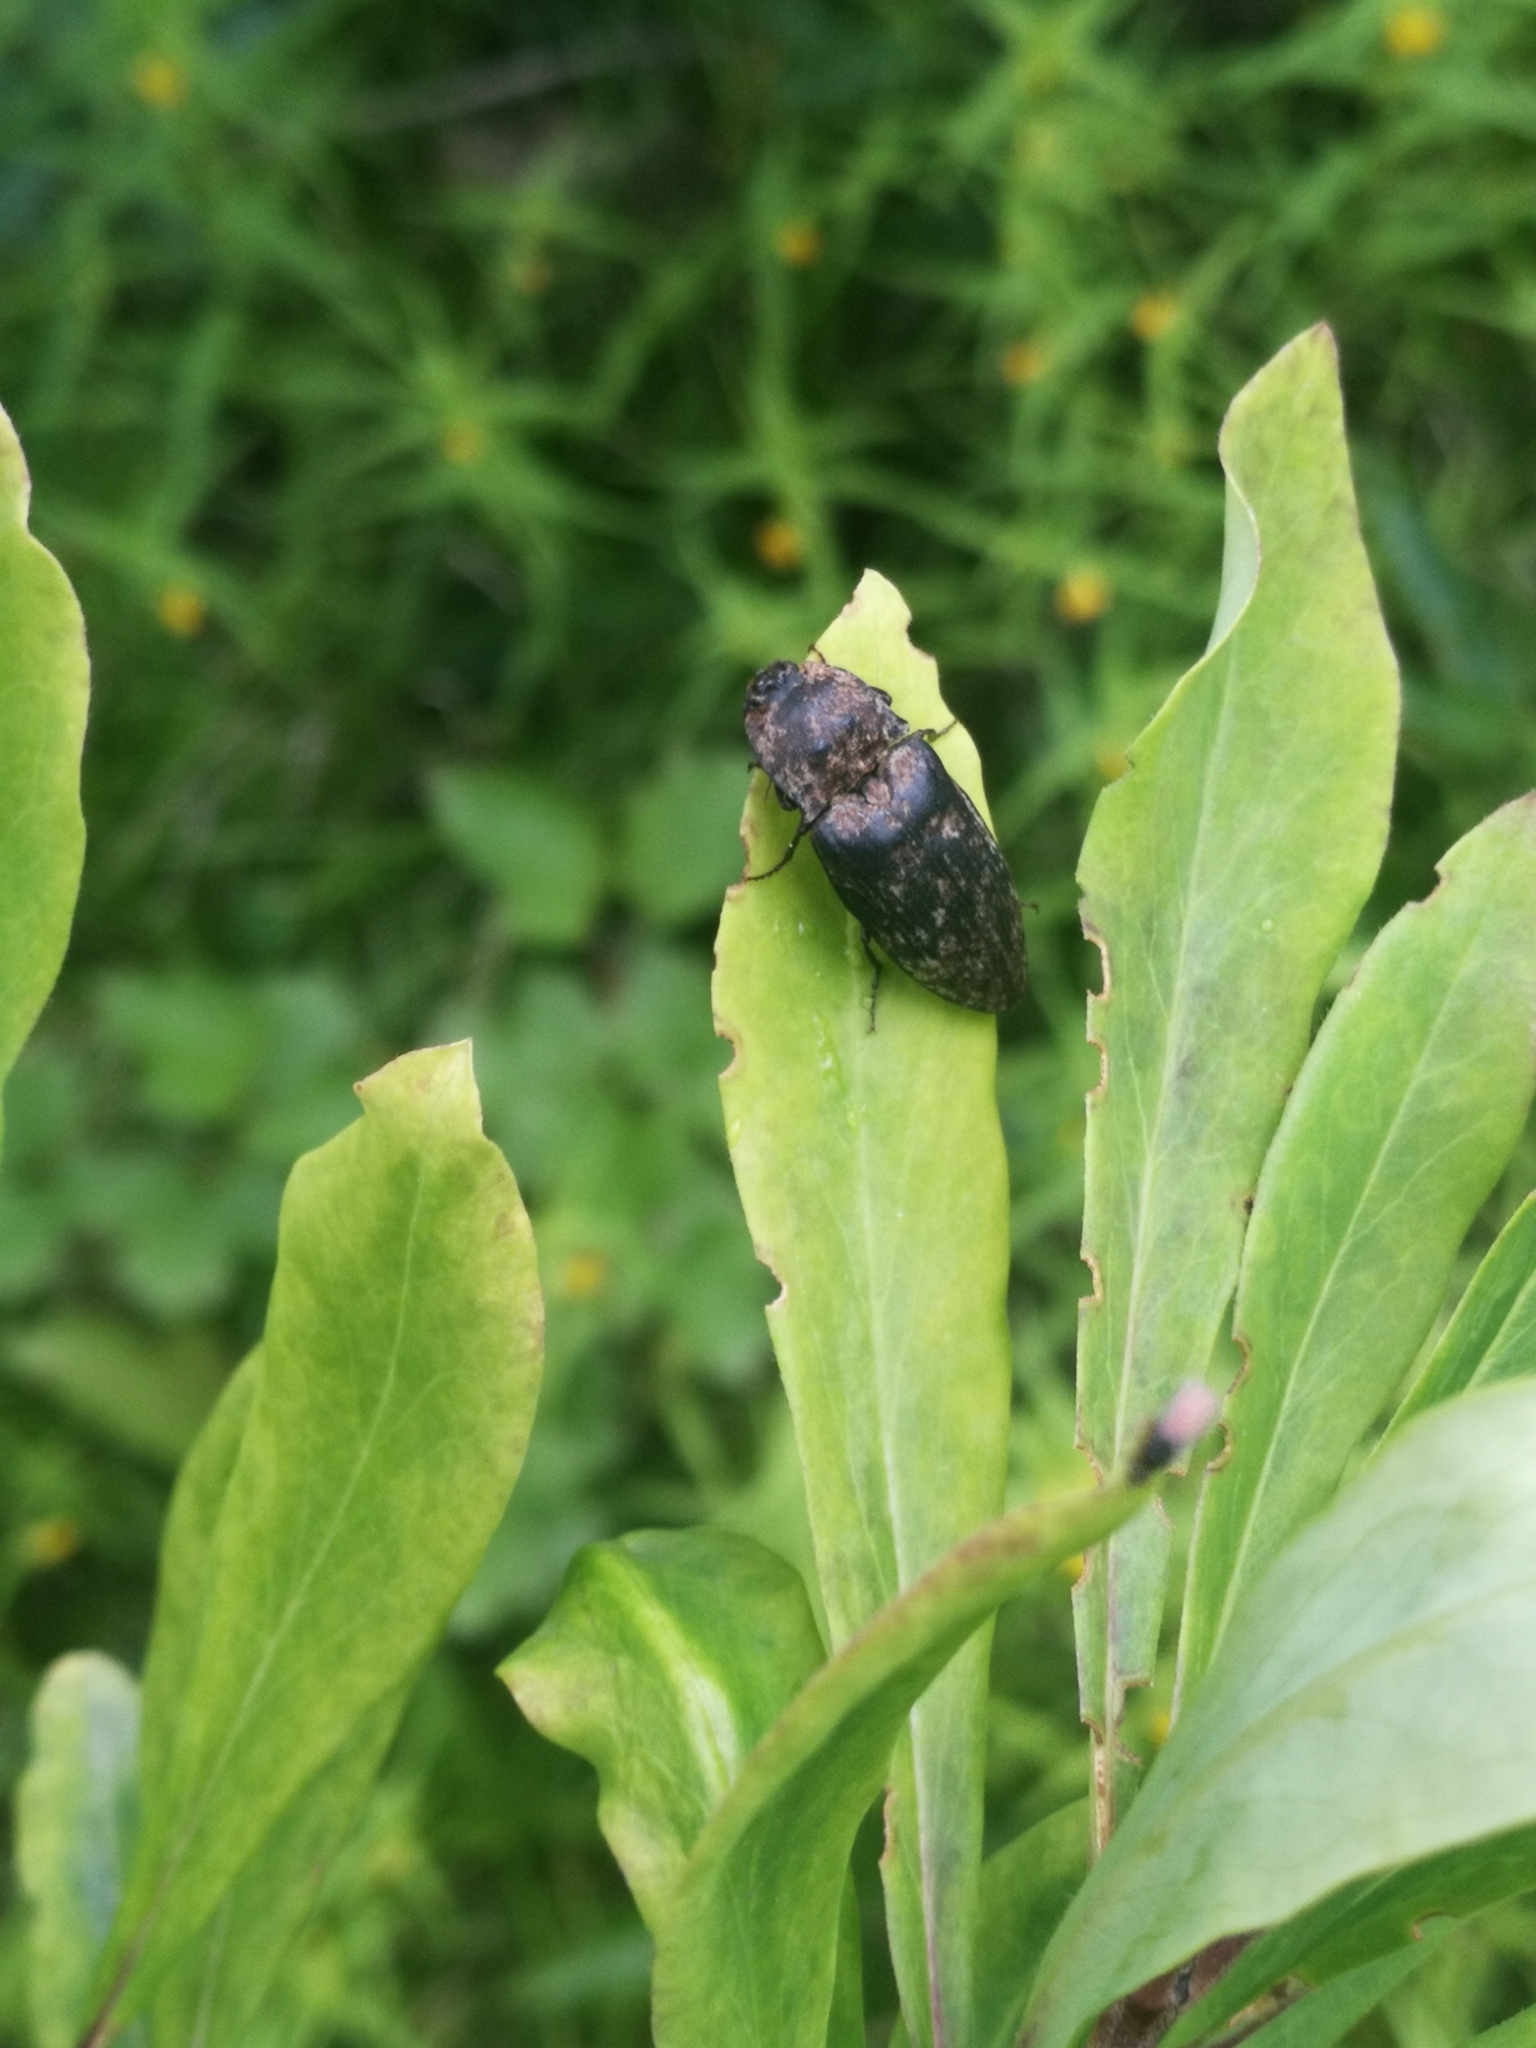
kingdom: Animalia
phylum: Arthropoda
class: Insecta
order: Coleoptera
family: Elateridae
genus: Agrypnus
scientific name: Agrypnus murinus
